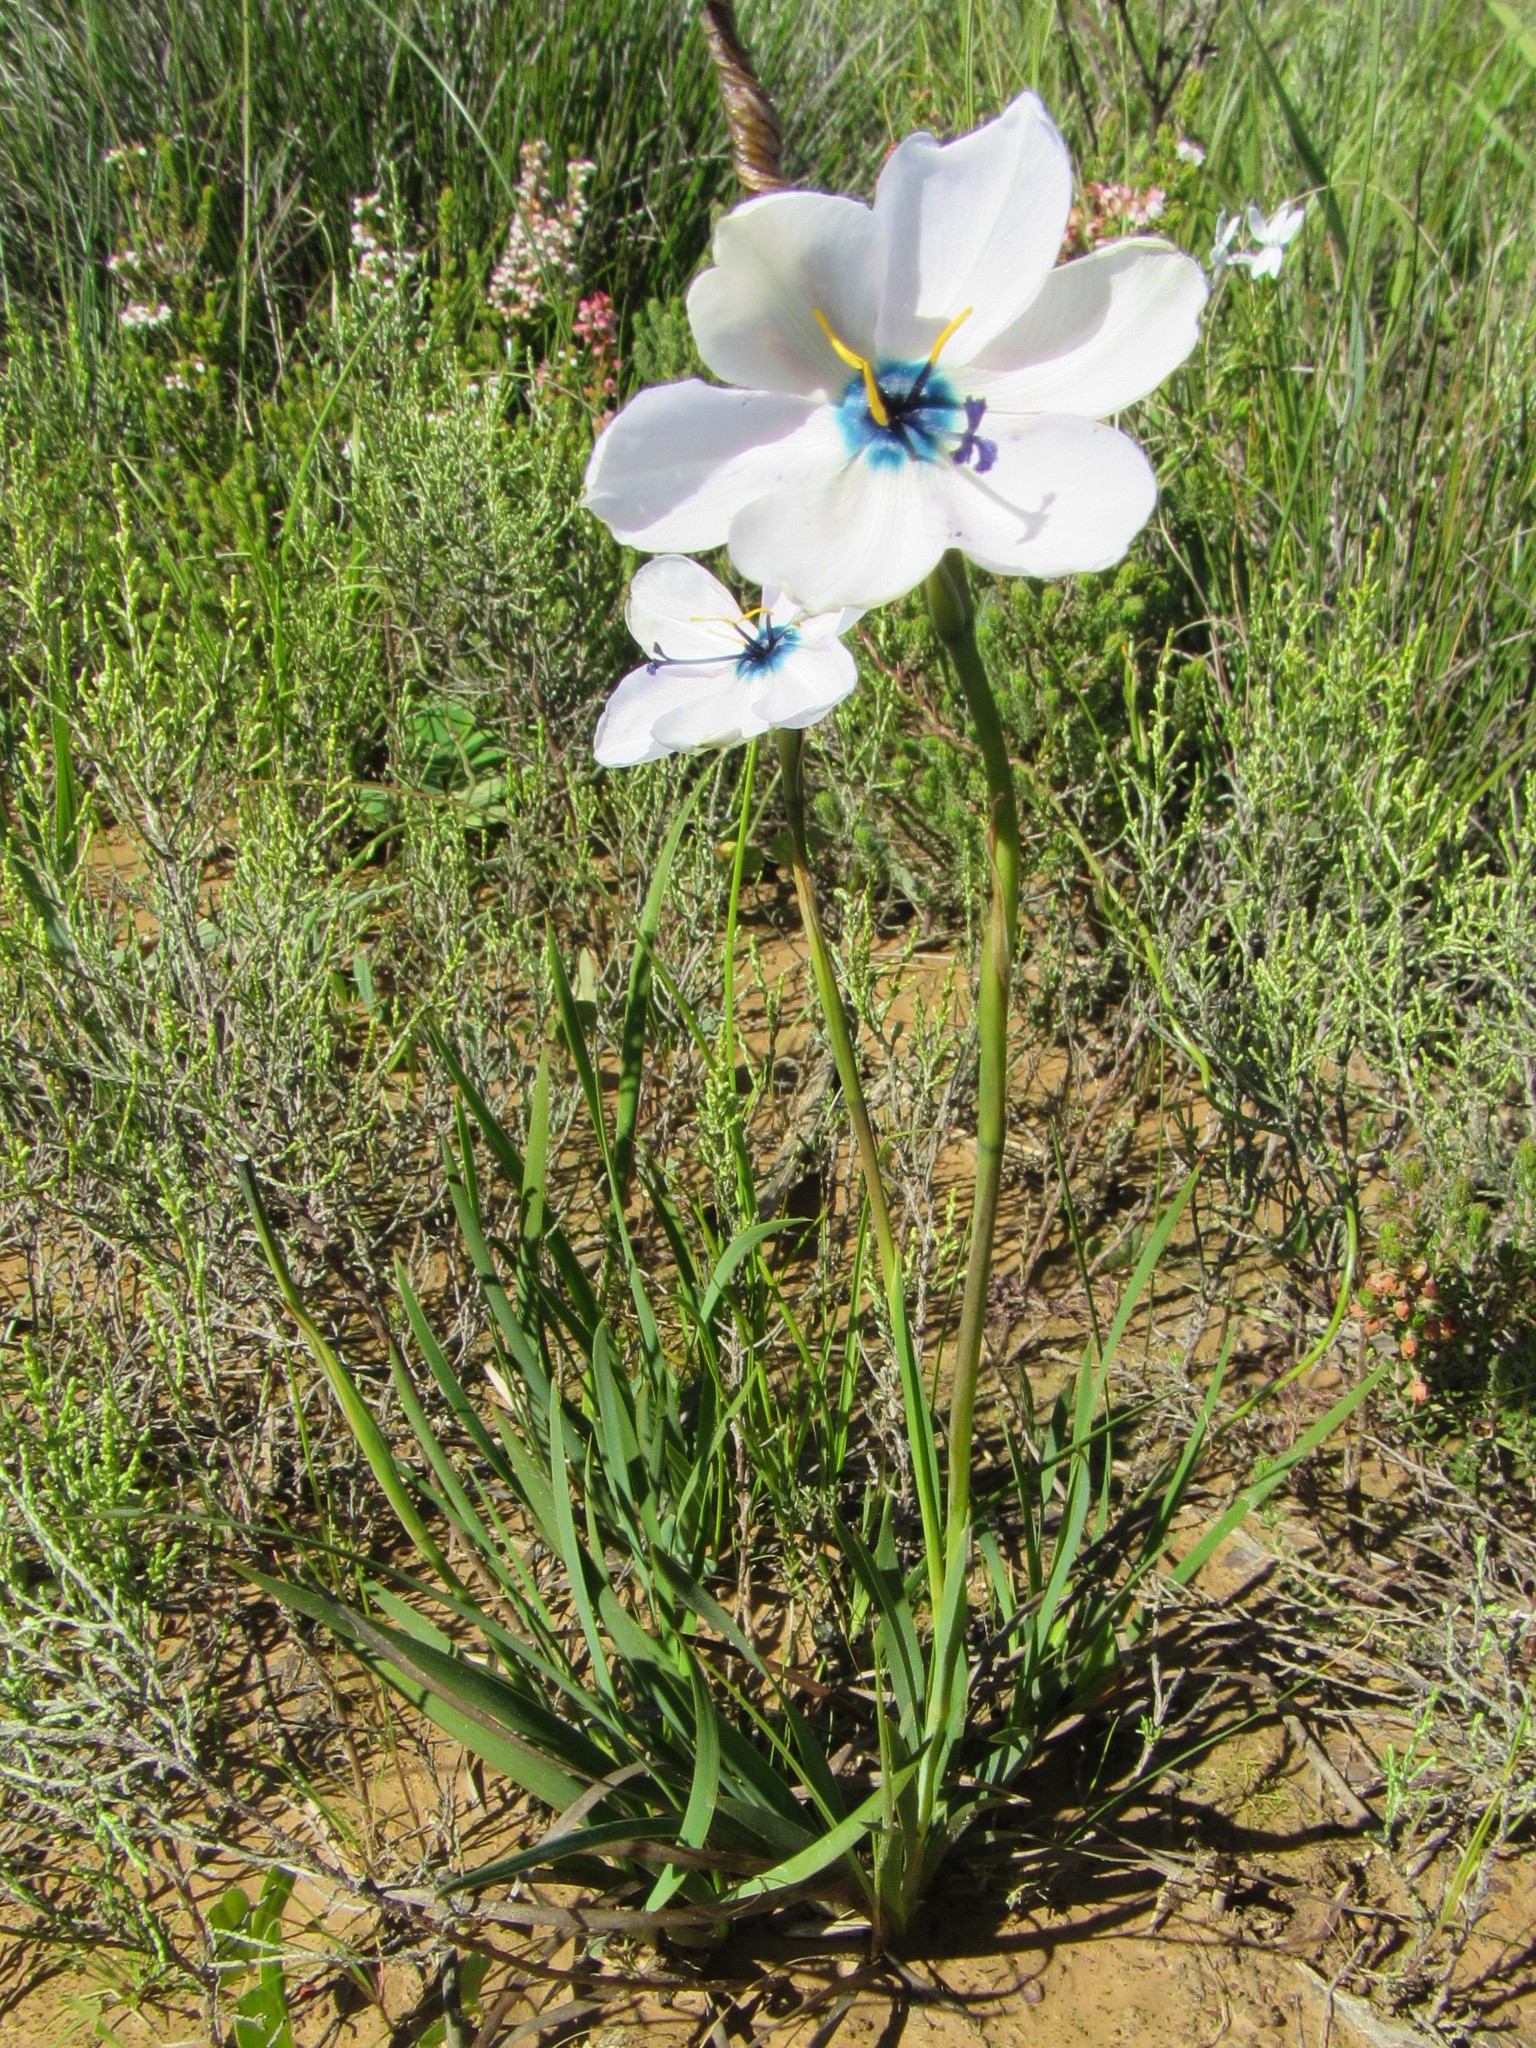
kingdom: Plantae
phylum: Tracheophyta
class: Liliopsida
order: Asparagales
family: Iridaceae
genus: Aristea
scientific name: Aristea cantharophila
